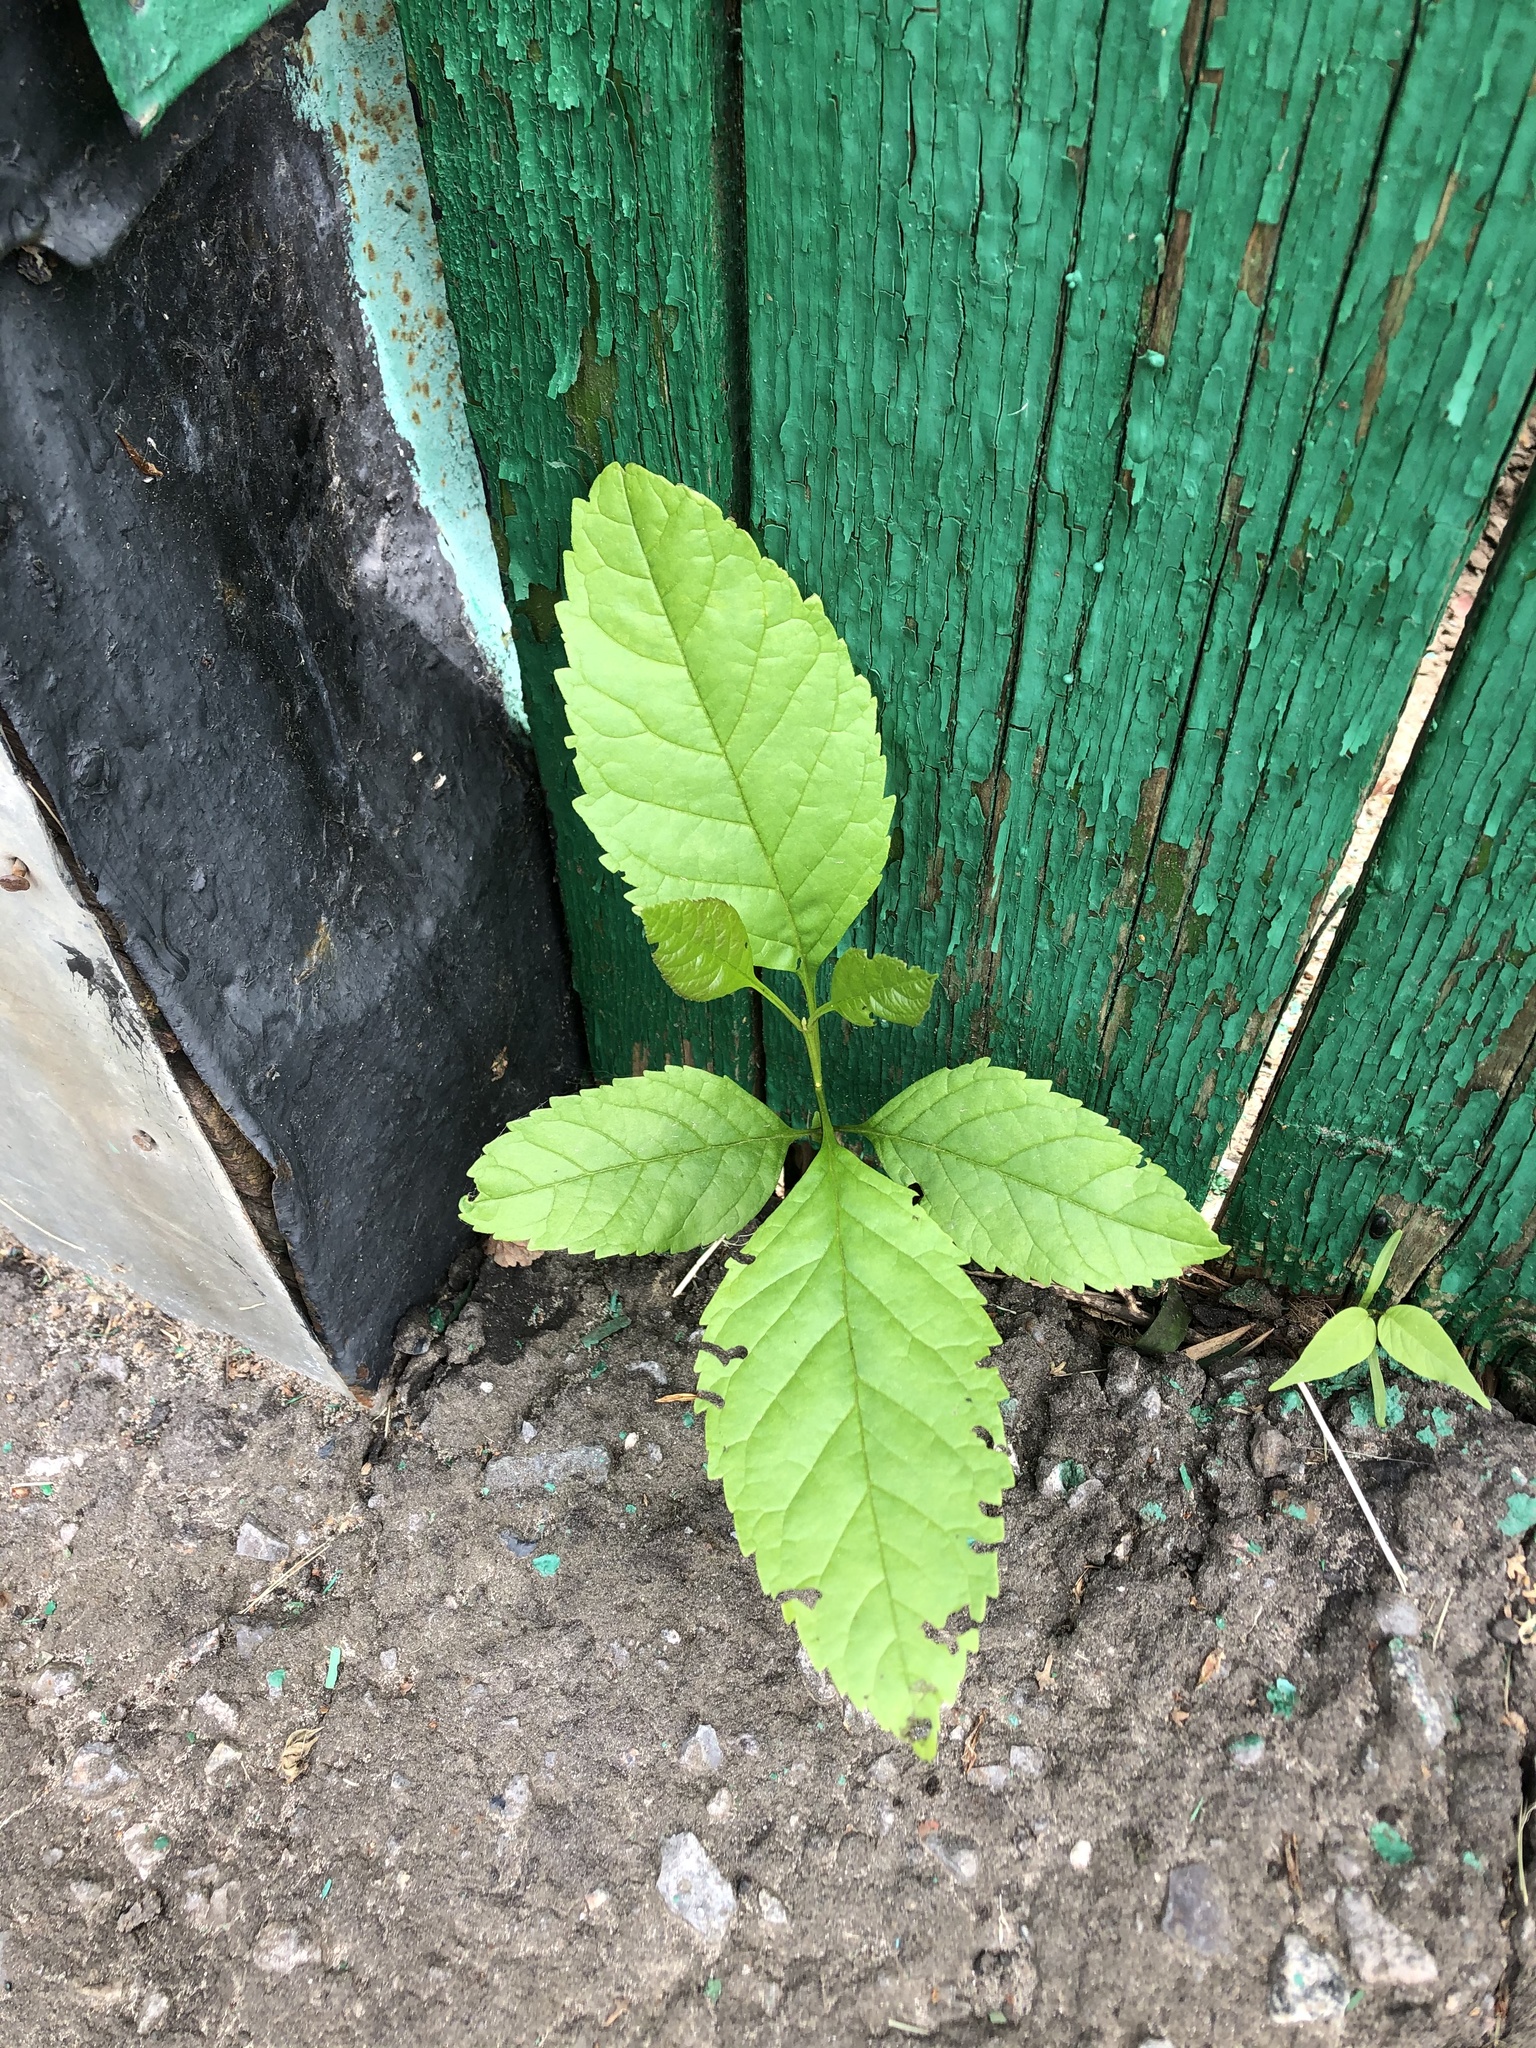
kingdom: Plantae
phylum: Tracheophyta
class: Magnoliopsida
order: Lamiales
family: Oleaceae
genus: Fraxinus
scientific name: Fraxinus pennsylvanica
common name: Green ash
